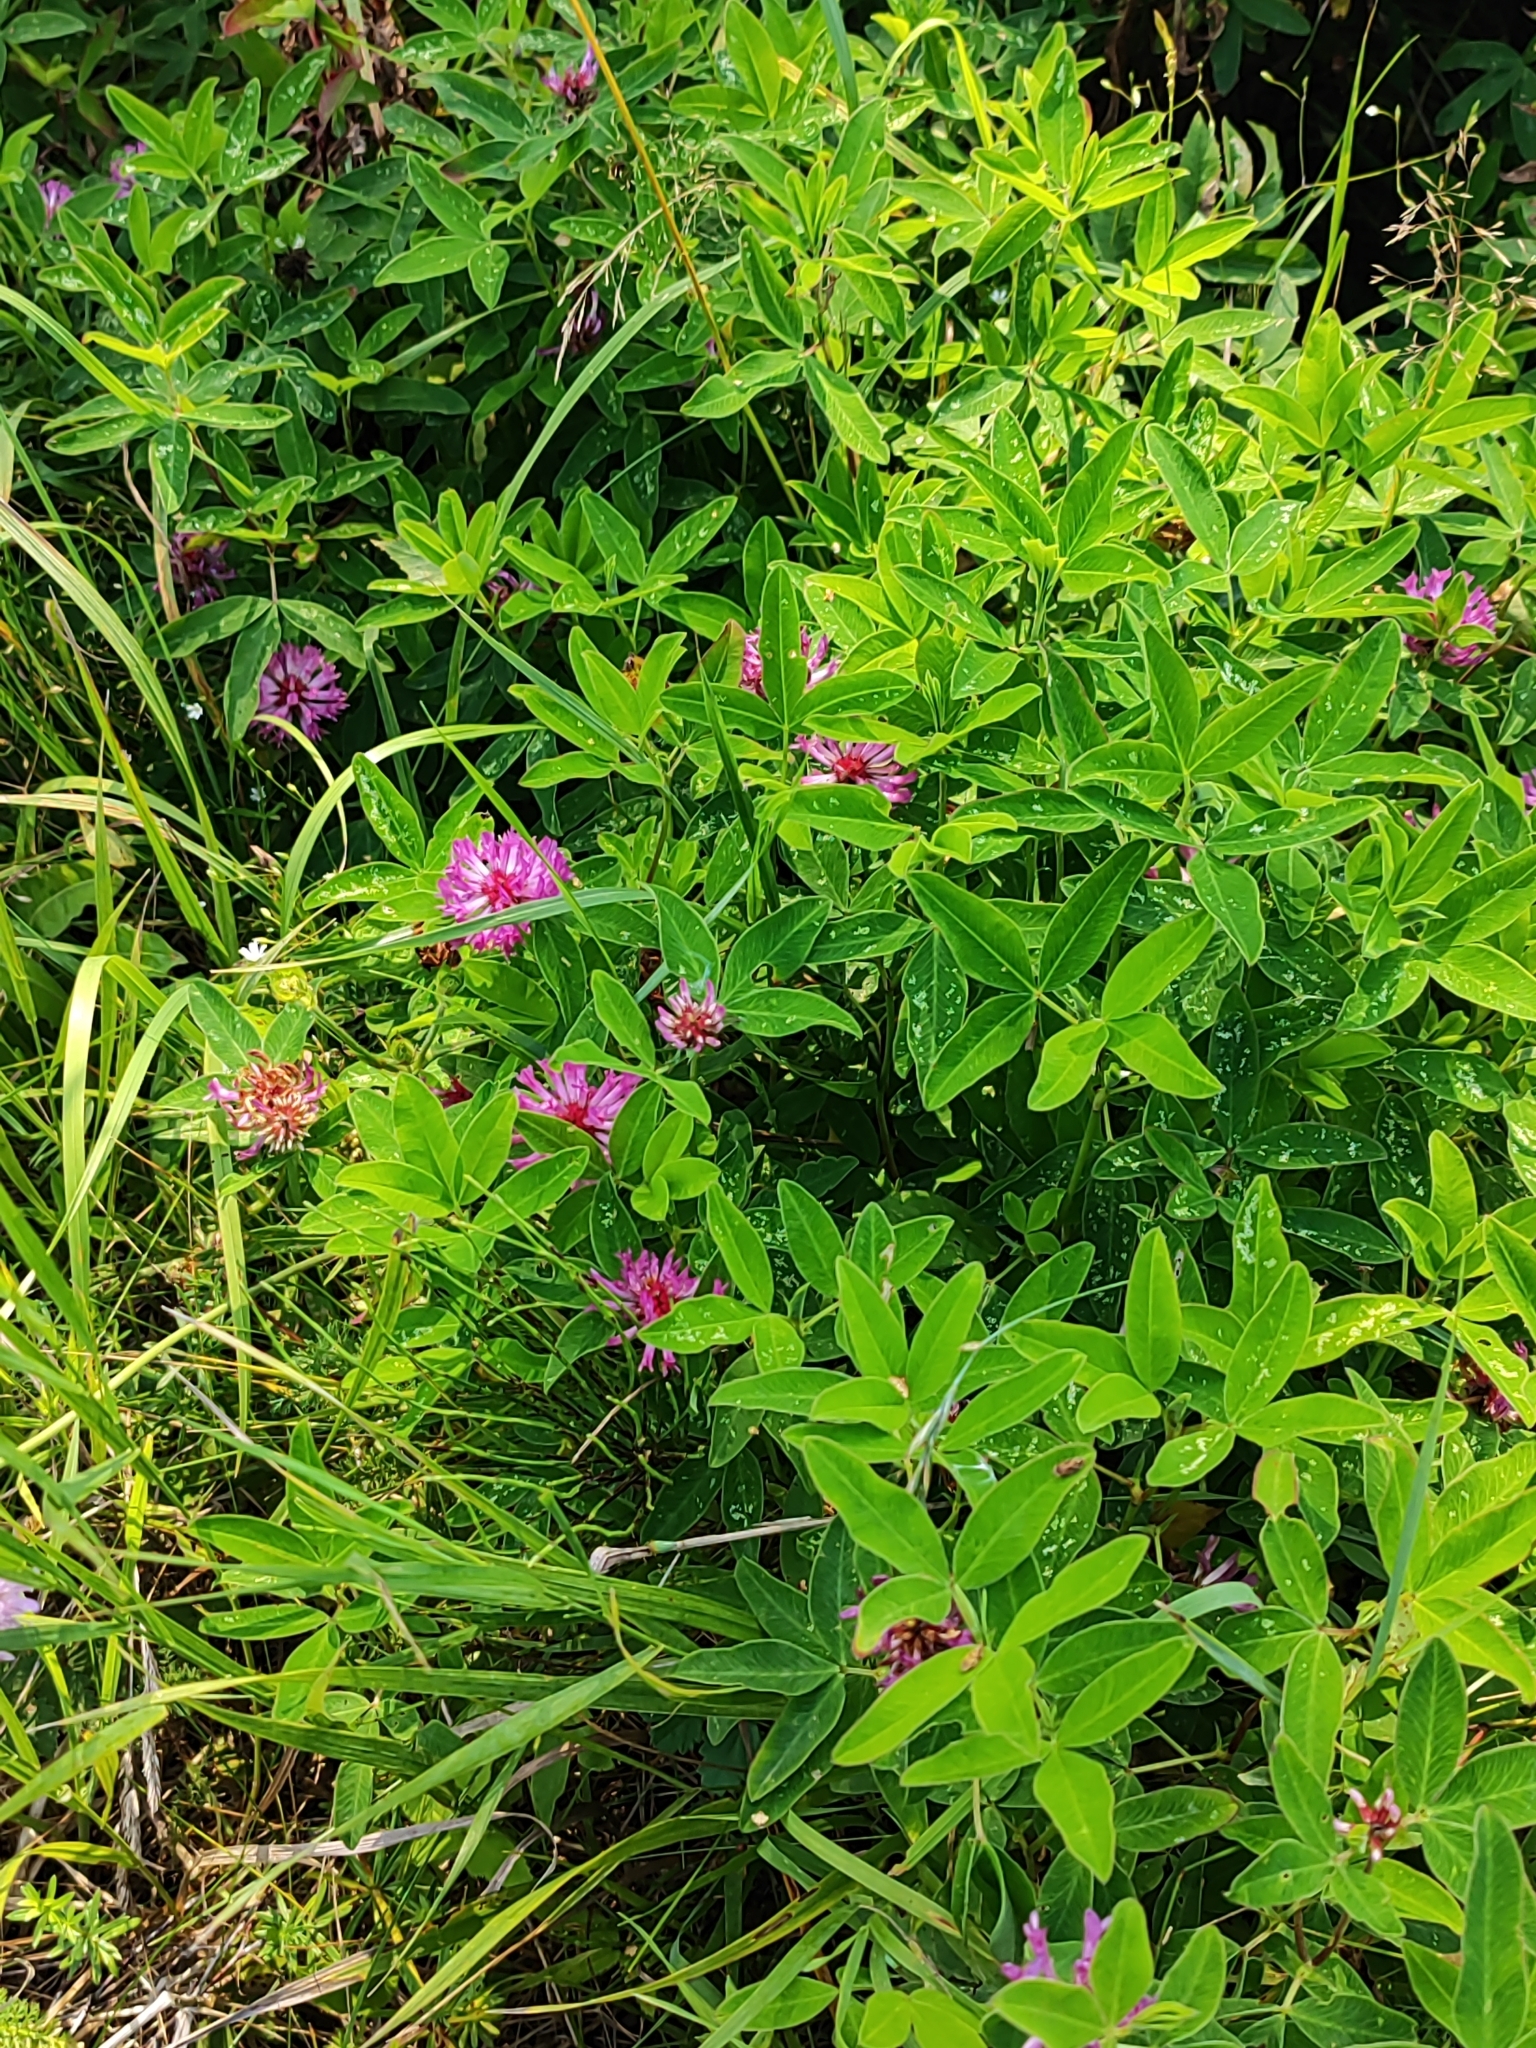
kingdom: Plantae
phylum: Tracheophyta
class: Magnoliopsida
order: Fabales
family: Fabaceae
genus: Trifolium
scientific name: Trifolium medium
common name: Zigzag clover
